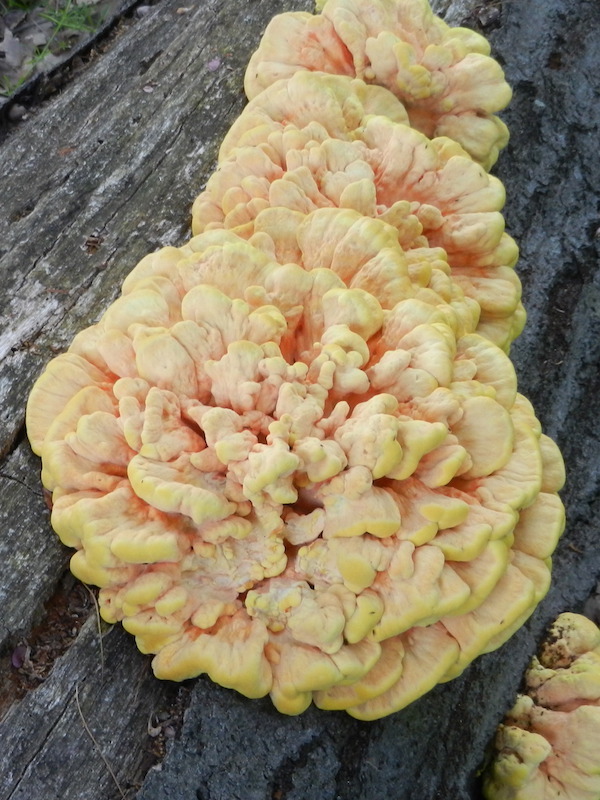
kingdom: Fungi
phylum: Basidiomycota
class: Agaricomycetes
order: Polyporales
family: Laetiporaceae
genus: Laetiporus
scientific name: Laetiporus sulphureus
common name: Chicken of the woods
